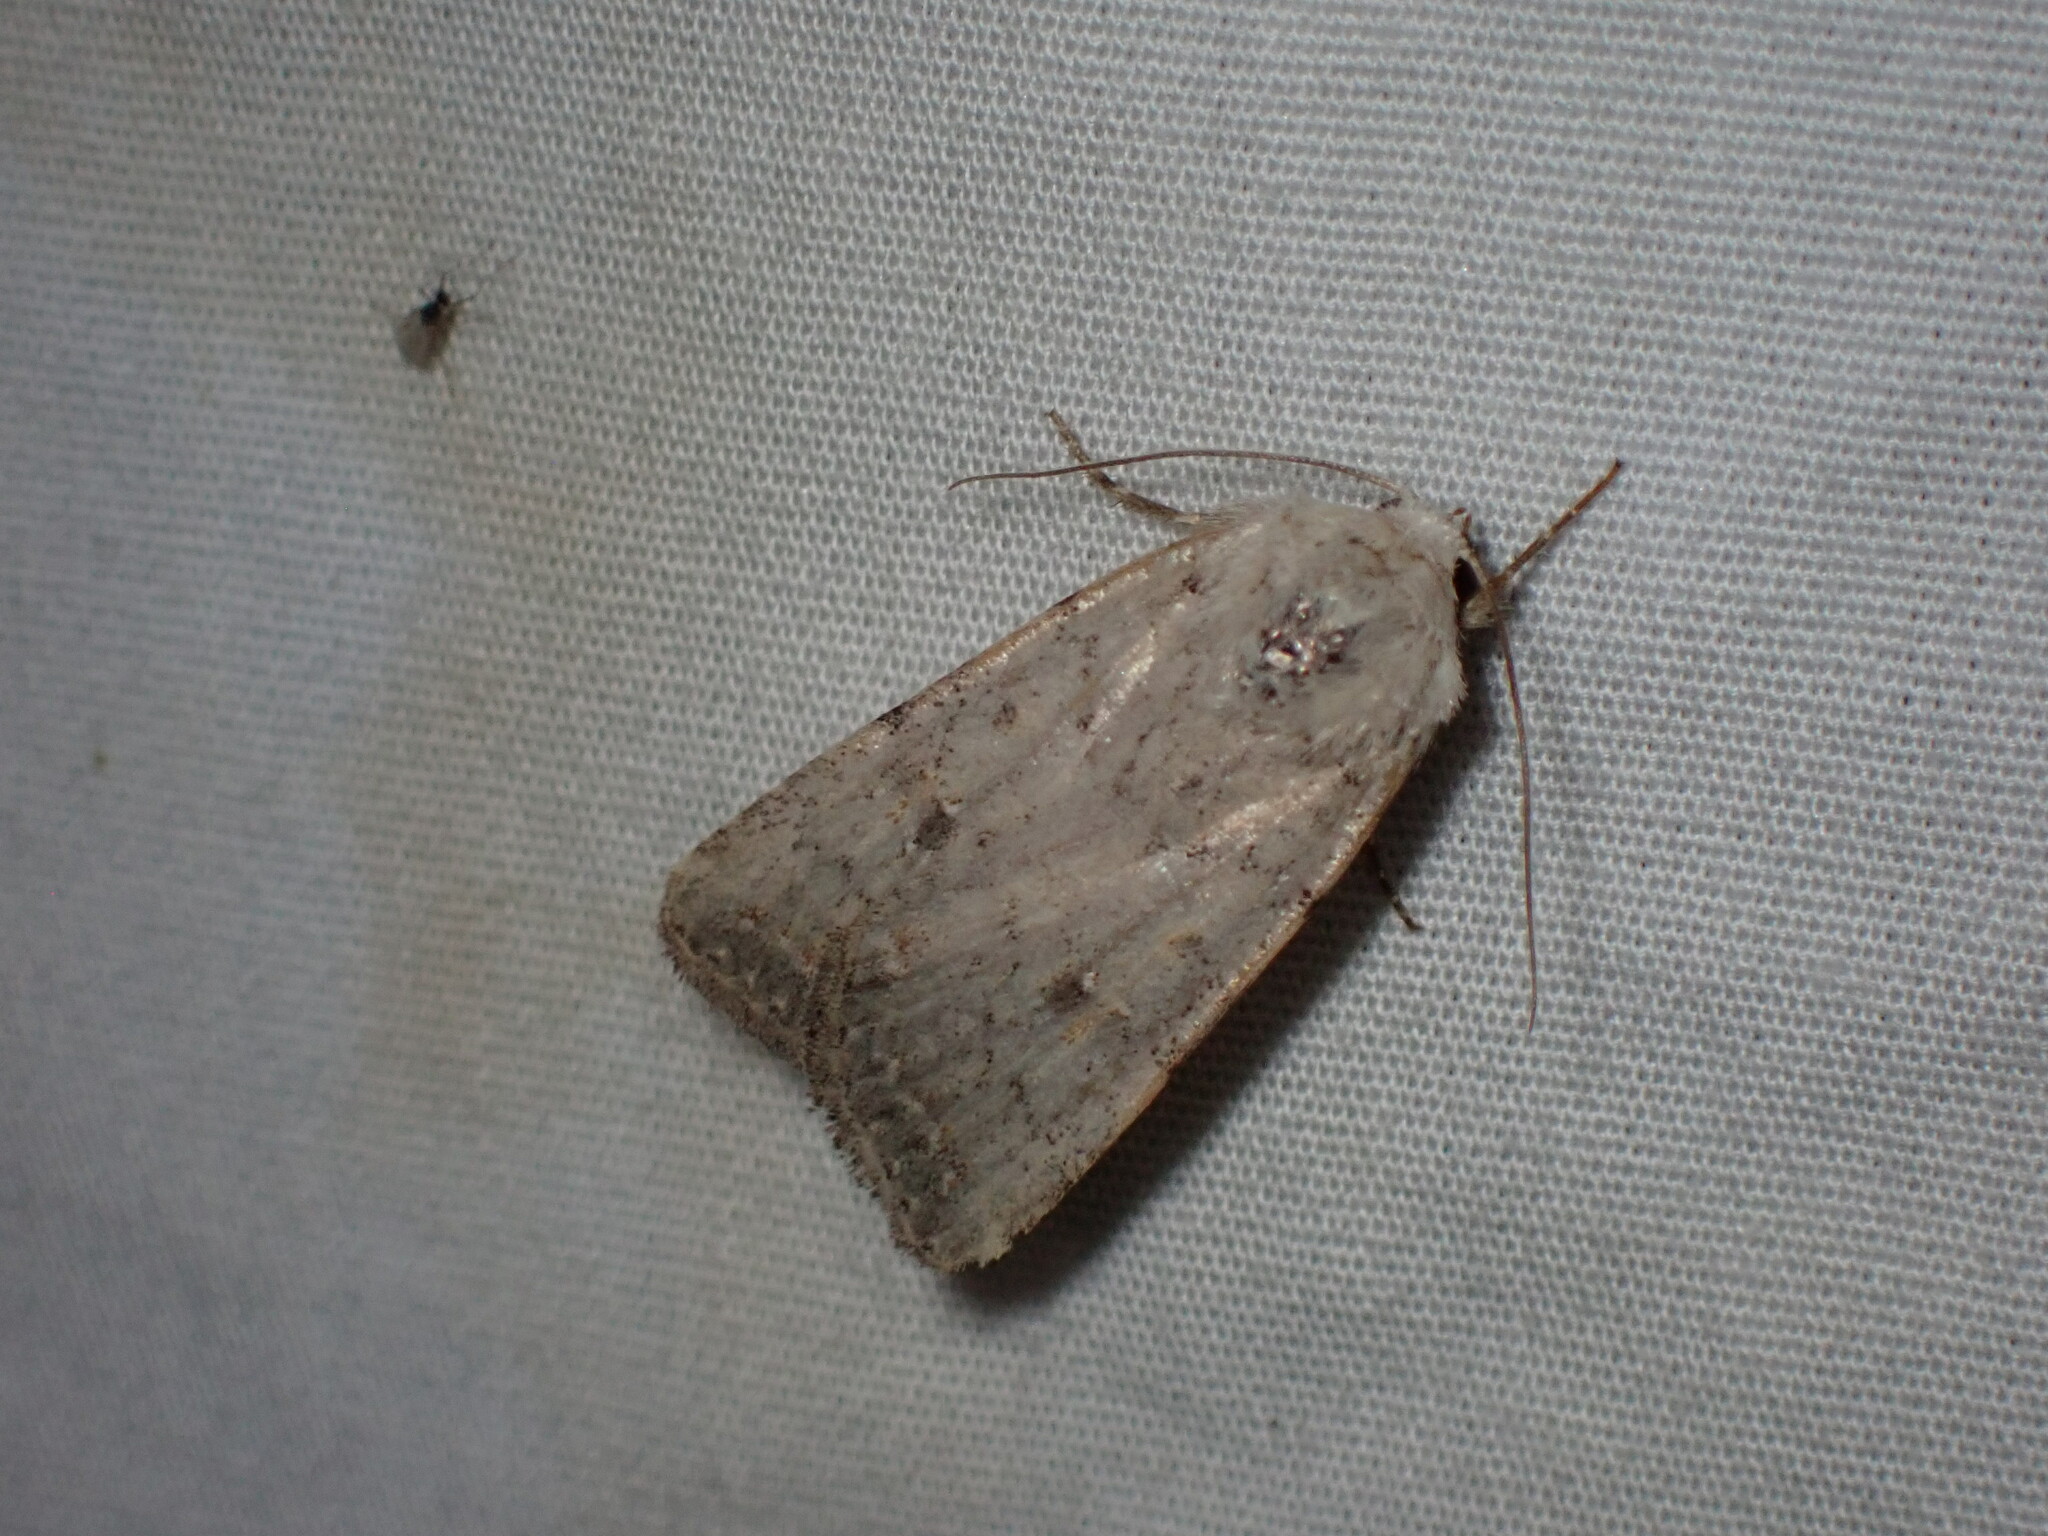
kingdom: Animalia
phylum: Arthropoda
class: Insecta
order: Lepidoptera
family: Noctuidae
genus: Caradrina
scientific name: Caradrina montana
